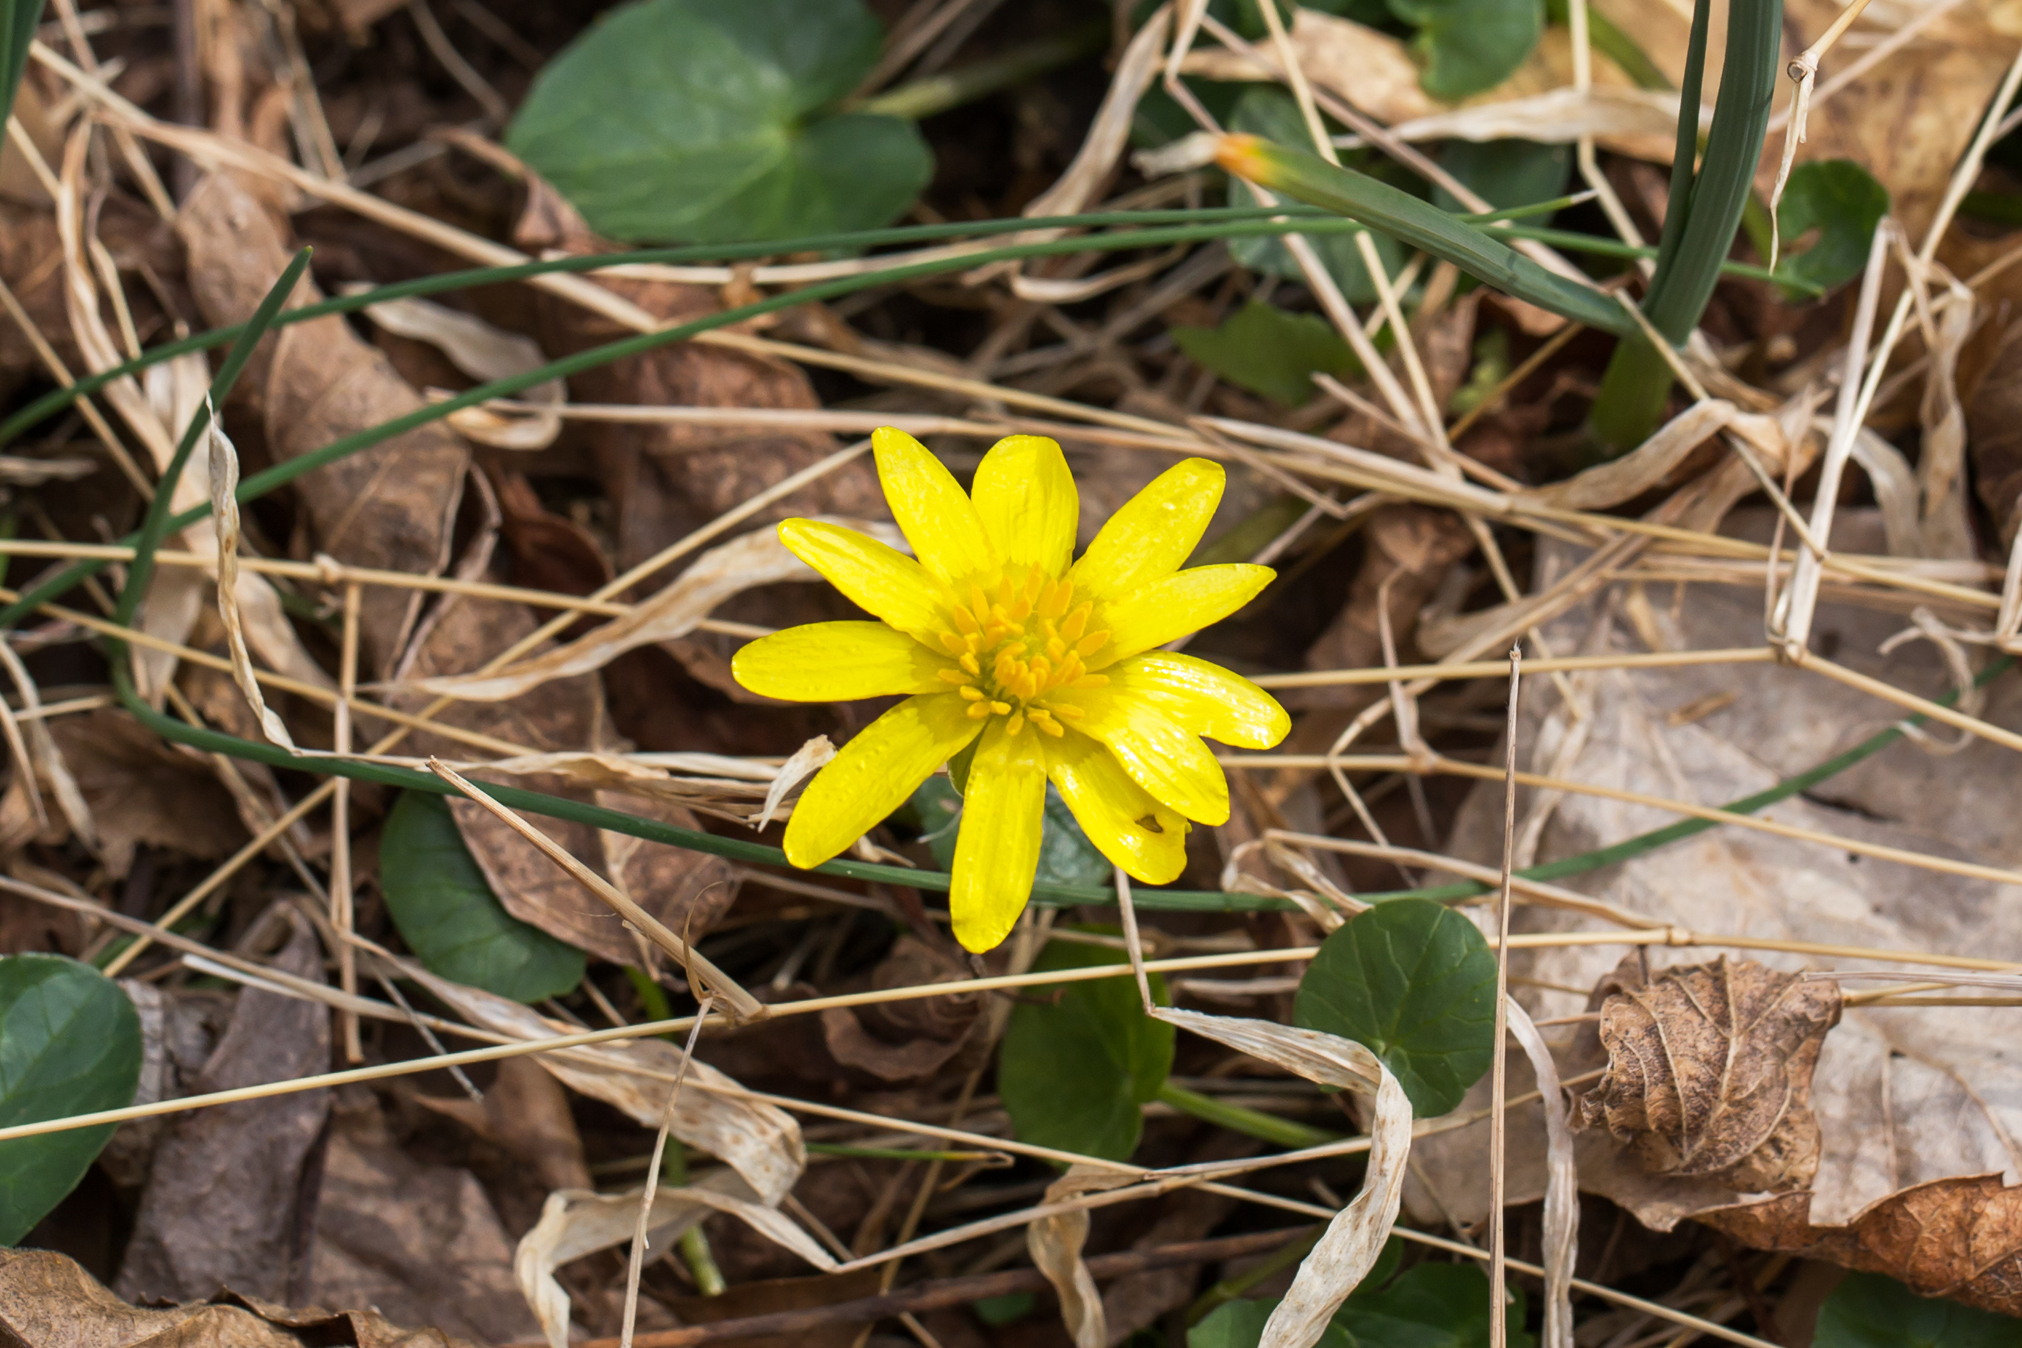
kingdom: Plantae
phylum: Tracheophyta
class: Magnoliopsida
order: Ranunculales
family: Ranunculaceae
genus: Ficaria
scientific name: Ficaria verna
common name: Lesser celandine
